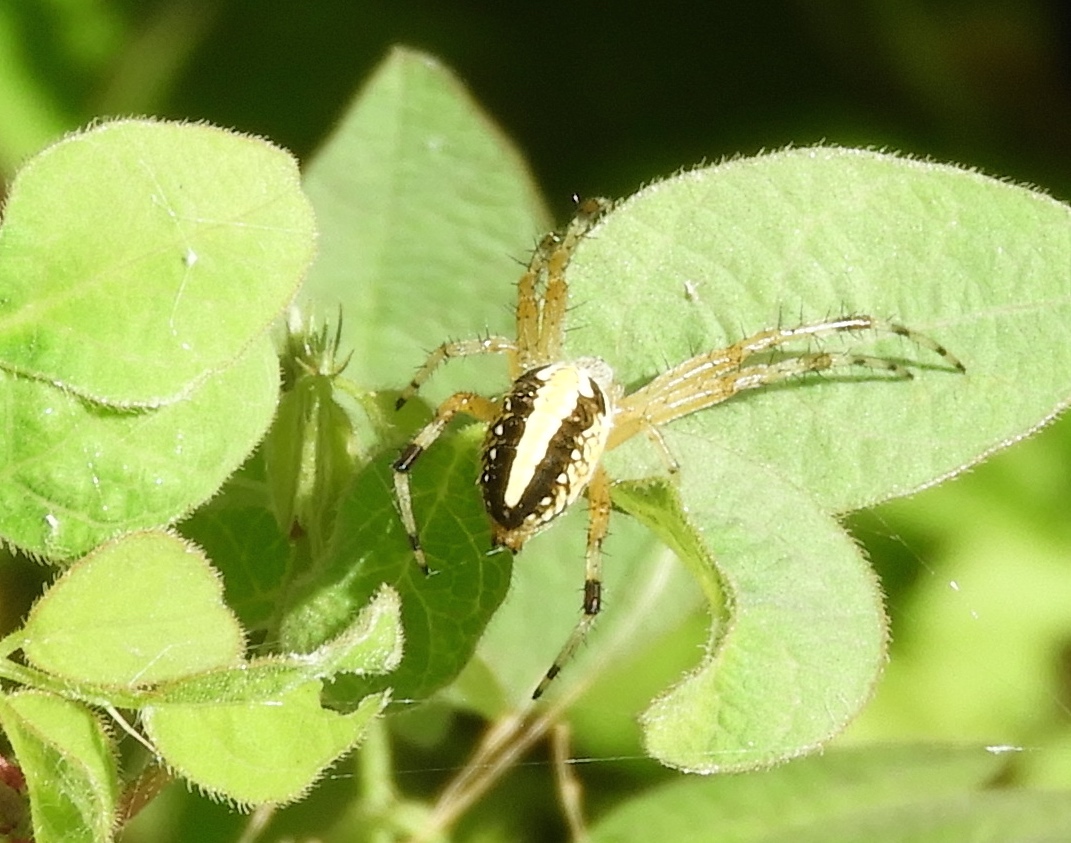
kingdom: Animalia
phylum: Arthropoda
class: Arachnida
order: Araneae
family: Araneidae
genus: Neoscona
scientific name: Neoscona oaxacensis
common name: Orb weavers
